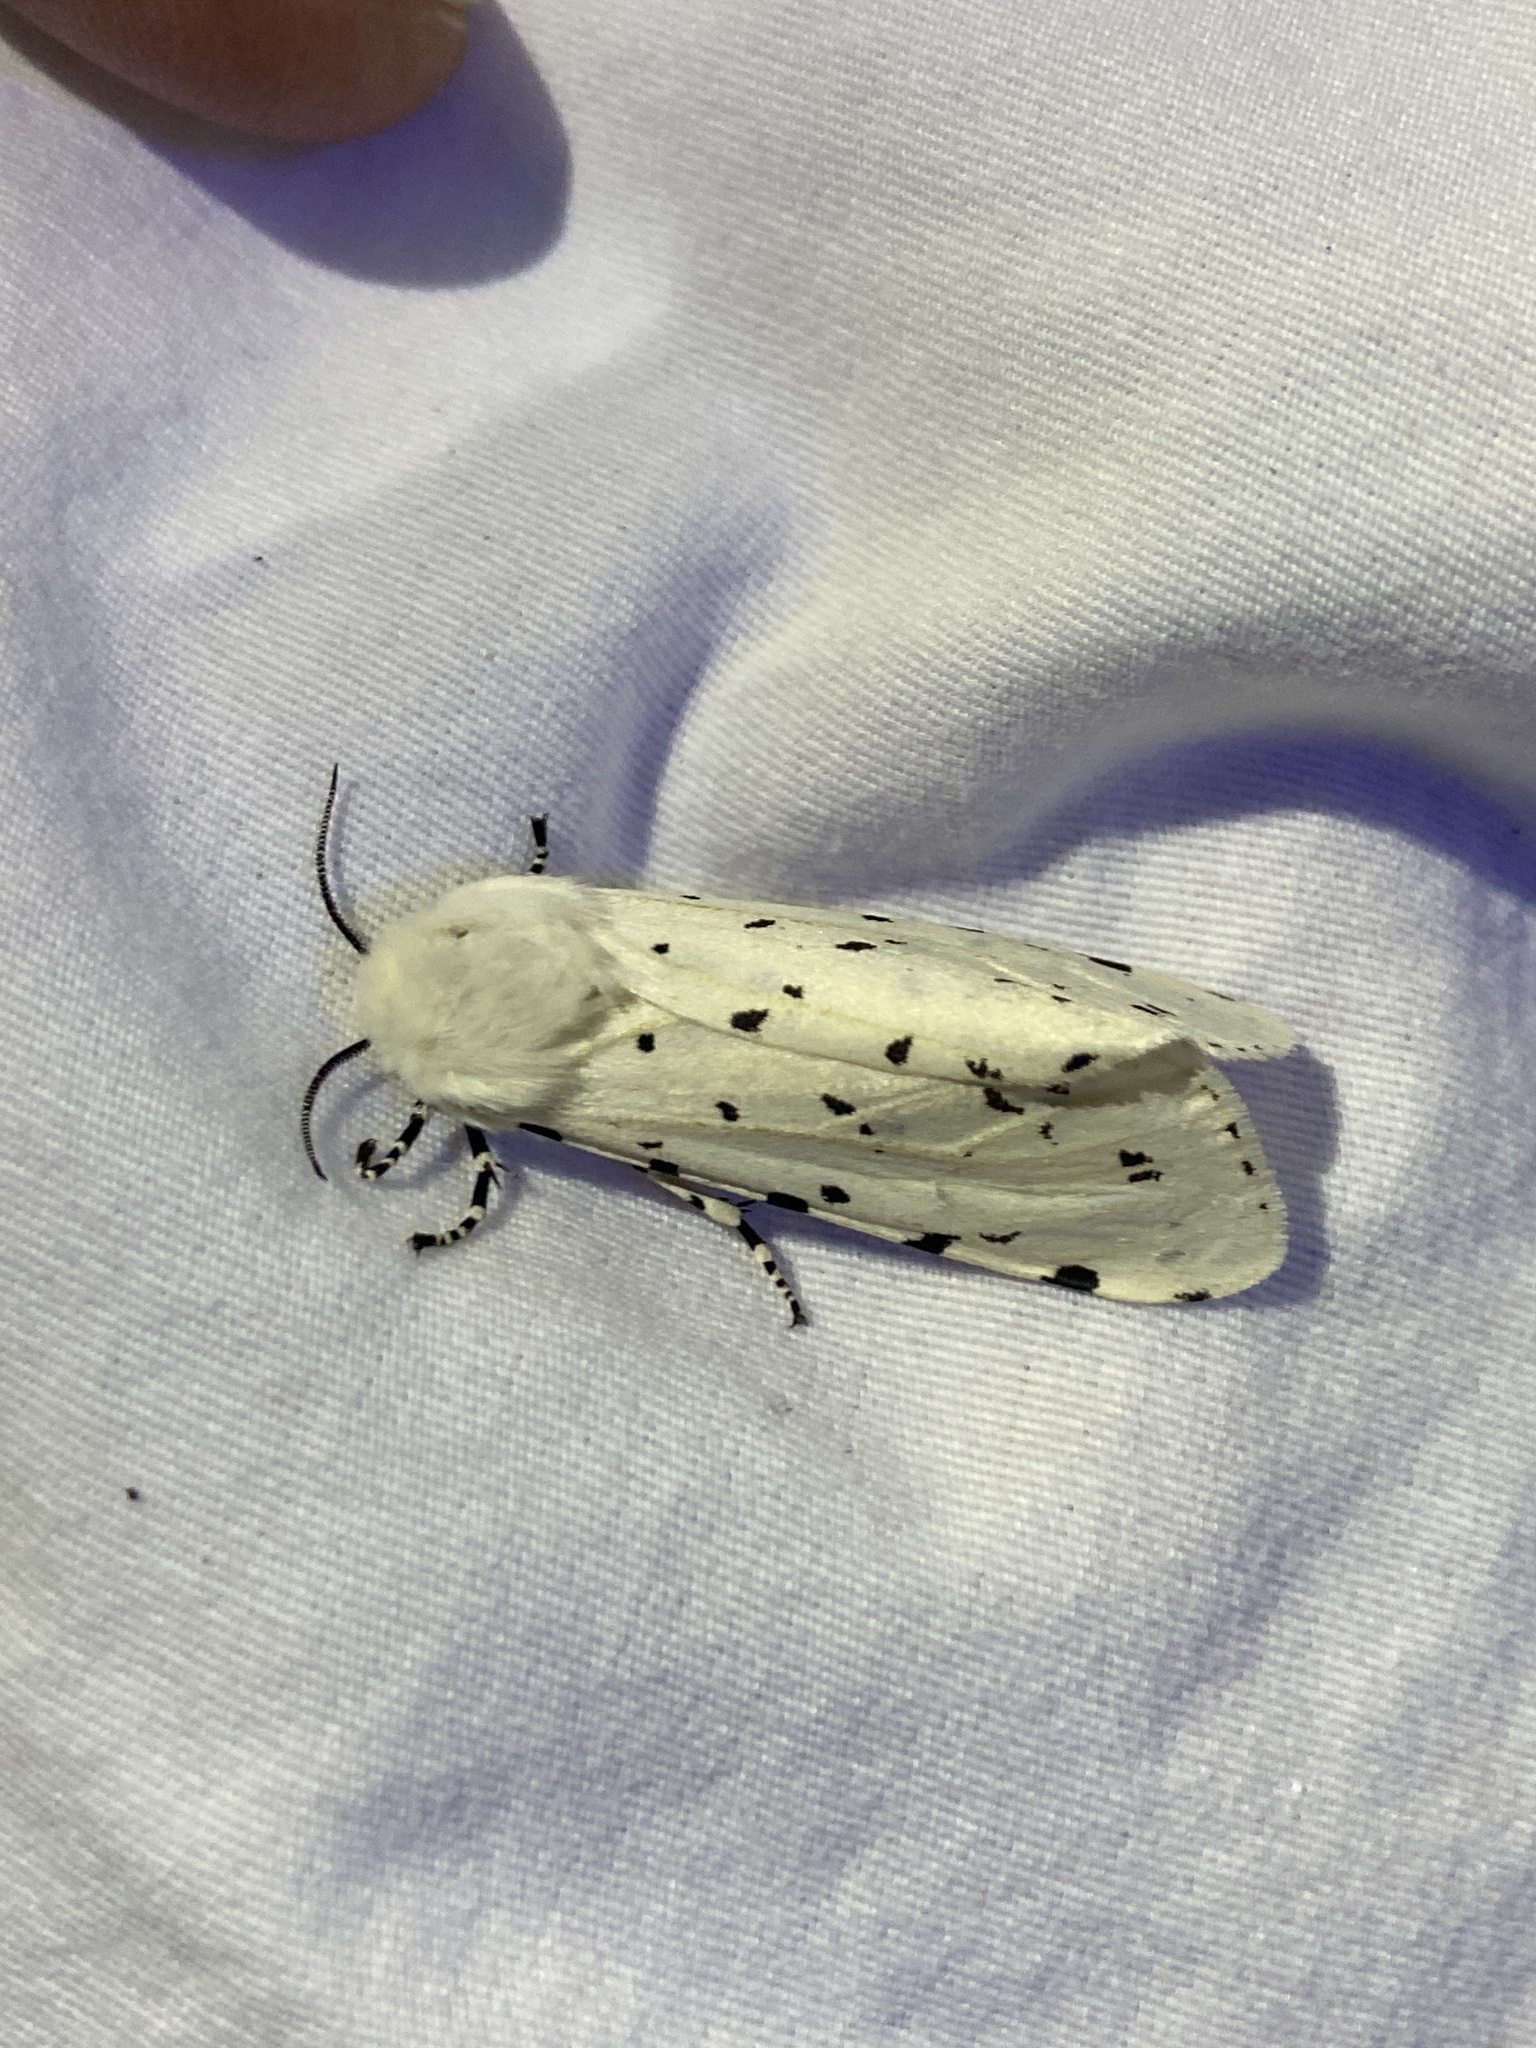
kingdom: Animalia
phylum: Arthropoda
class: Insecta
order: Lepidoptera
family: Erebidae
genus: Estigmene
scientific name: Estigmene acrea
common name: Salt marsh moth
